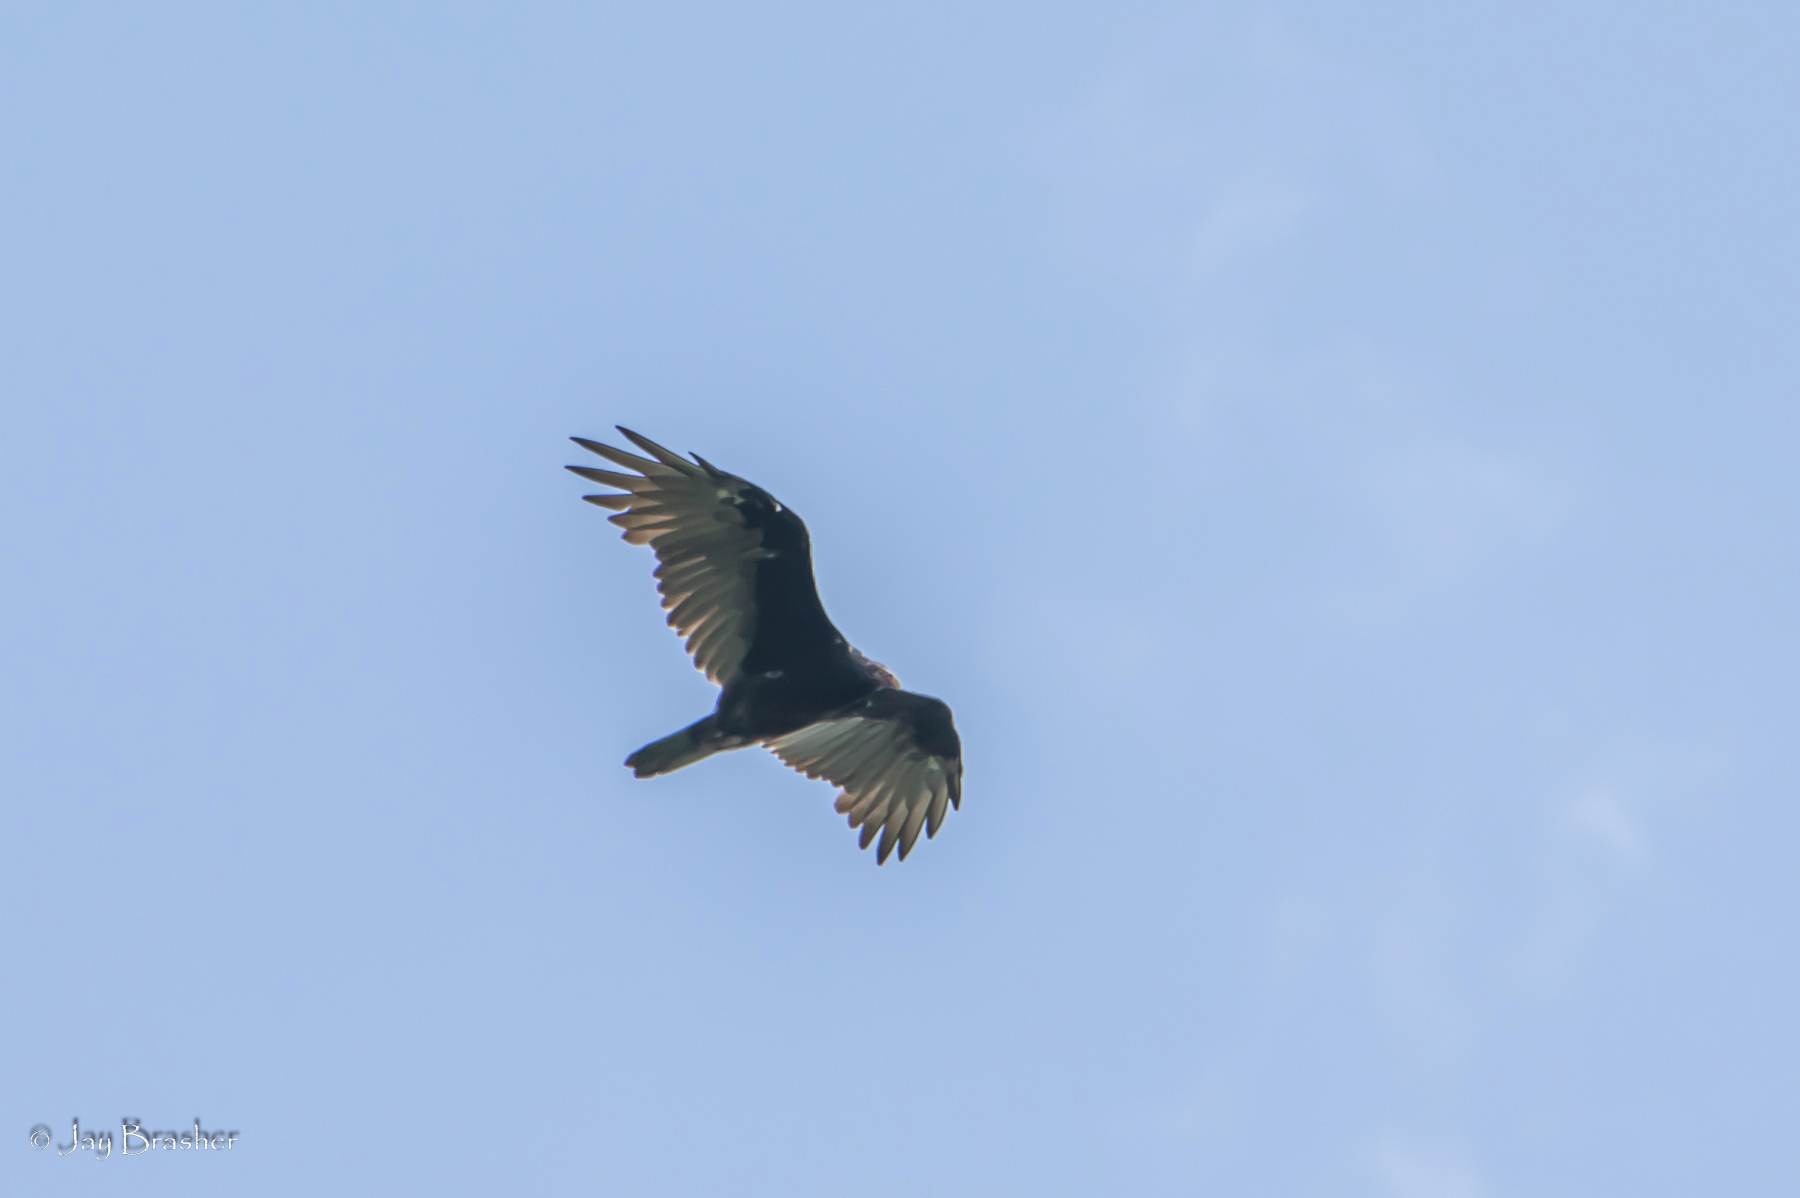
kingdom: Animalia
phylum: Chordata
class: Aves
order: Accipitriformes
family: Cathartidae
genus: Cathartes
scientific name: Cathartes aura
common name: Turkey vulture
